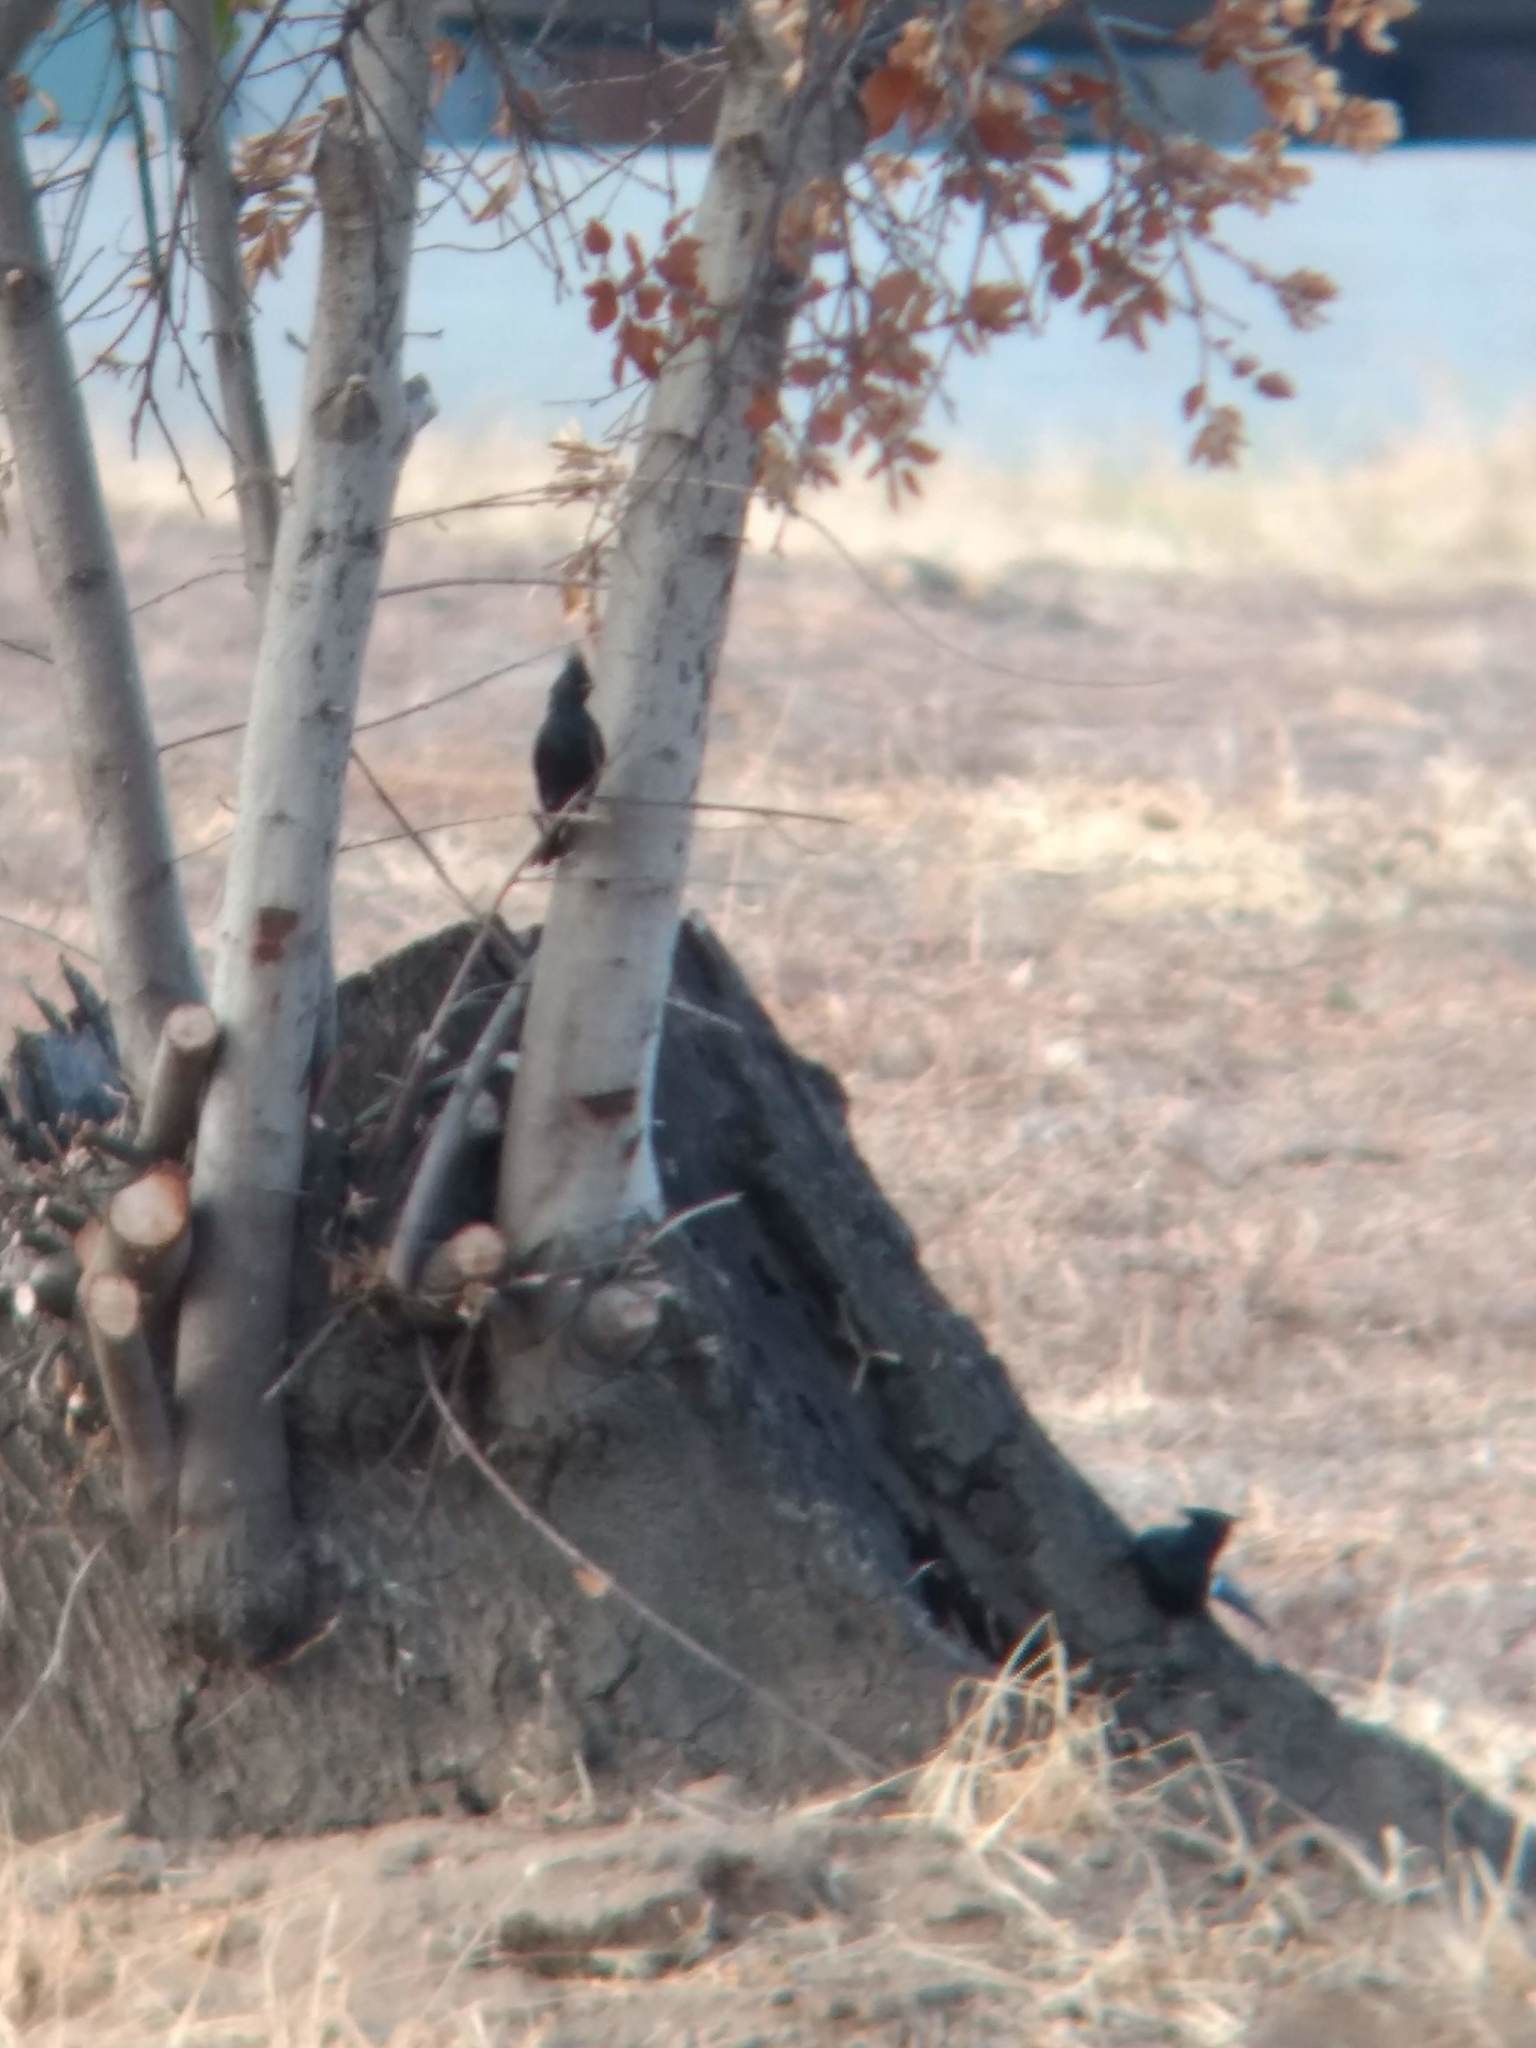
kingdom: Animalia
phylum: Chordata
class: Aves
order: Passeriformes
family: Ptilogonatidae
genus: Phainopepla
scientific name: Phainopepla nitens
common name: Phainopepla
